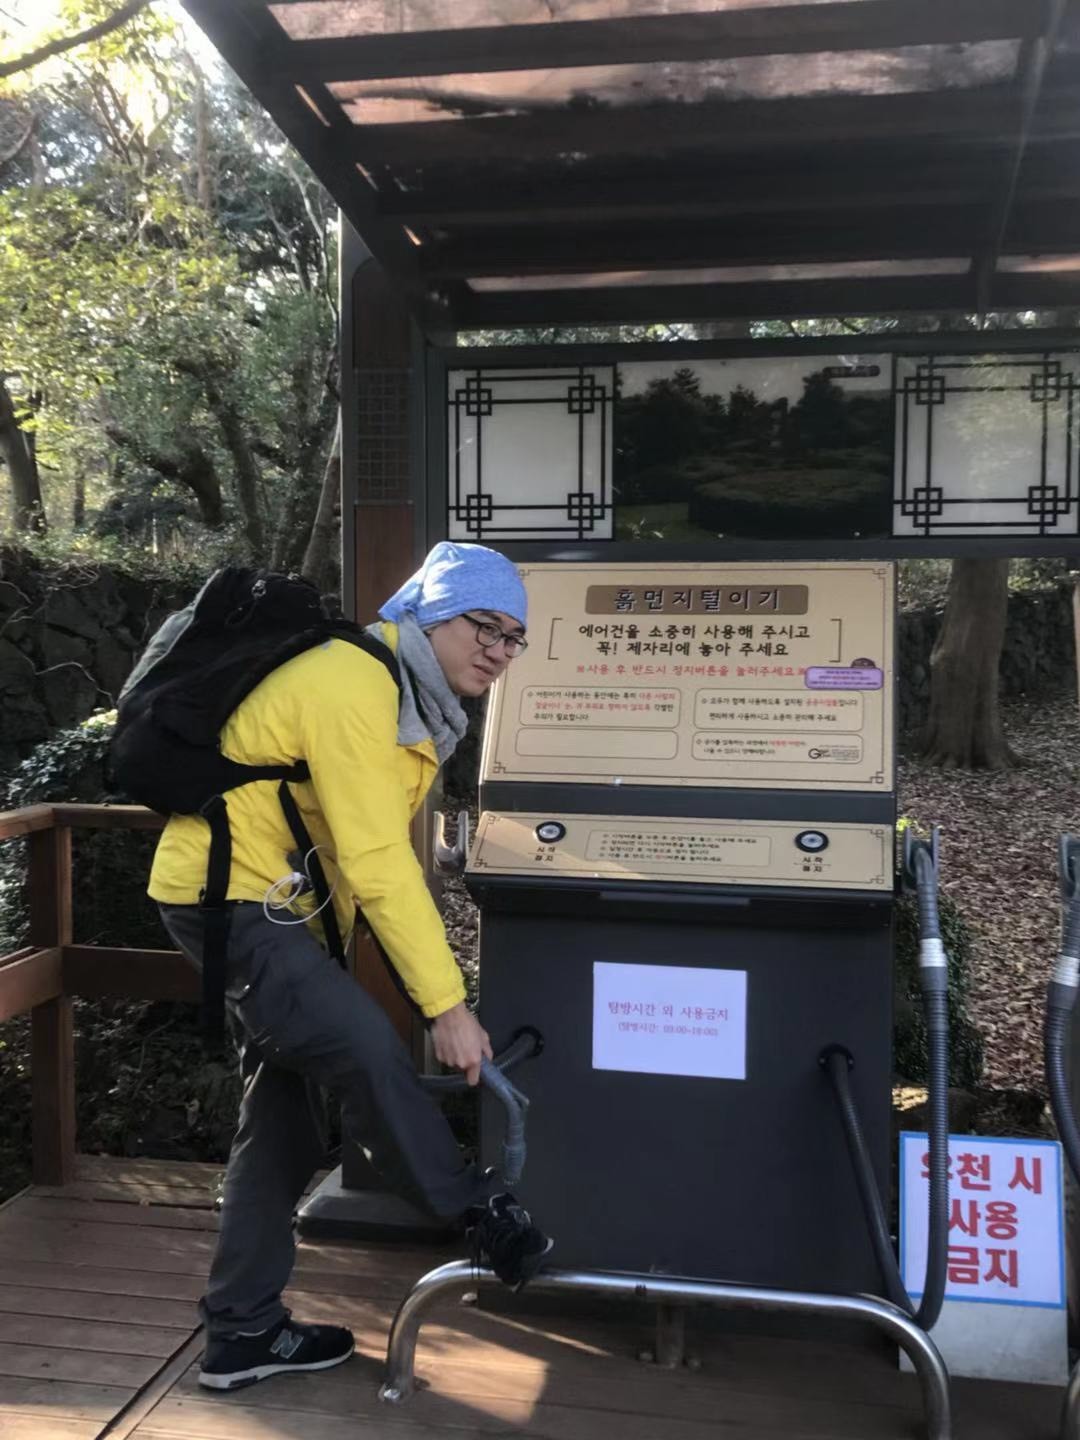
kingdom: Animalia
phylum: Chordata
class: Aves
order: Gruiformes
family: Rallidae
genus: Gallinula
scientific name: Gallinula chloropus
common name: Common moorhen
